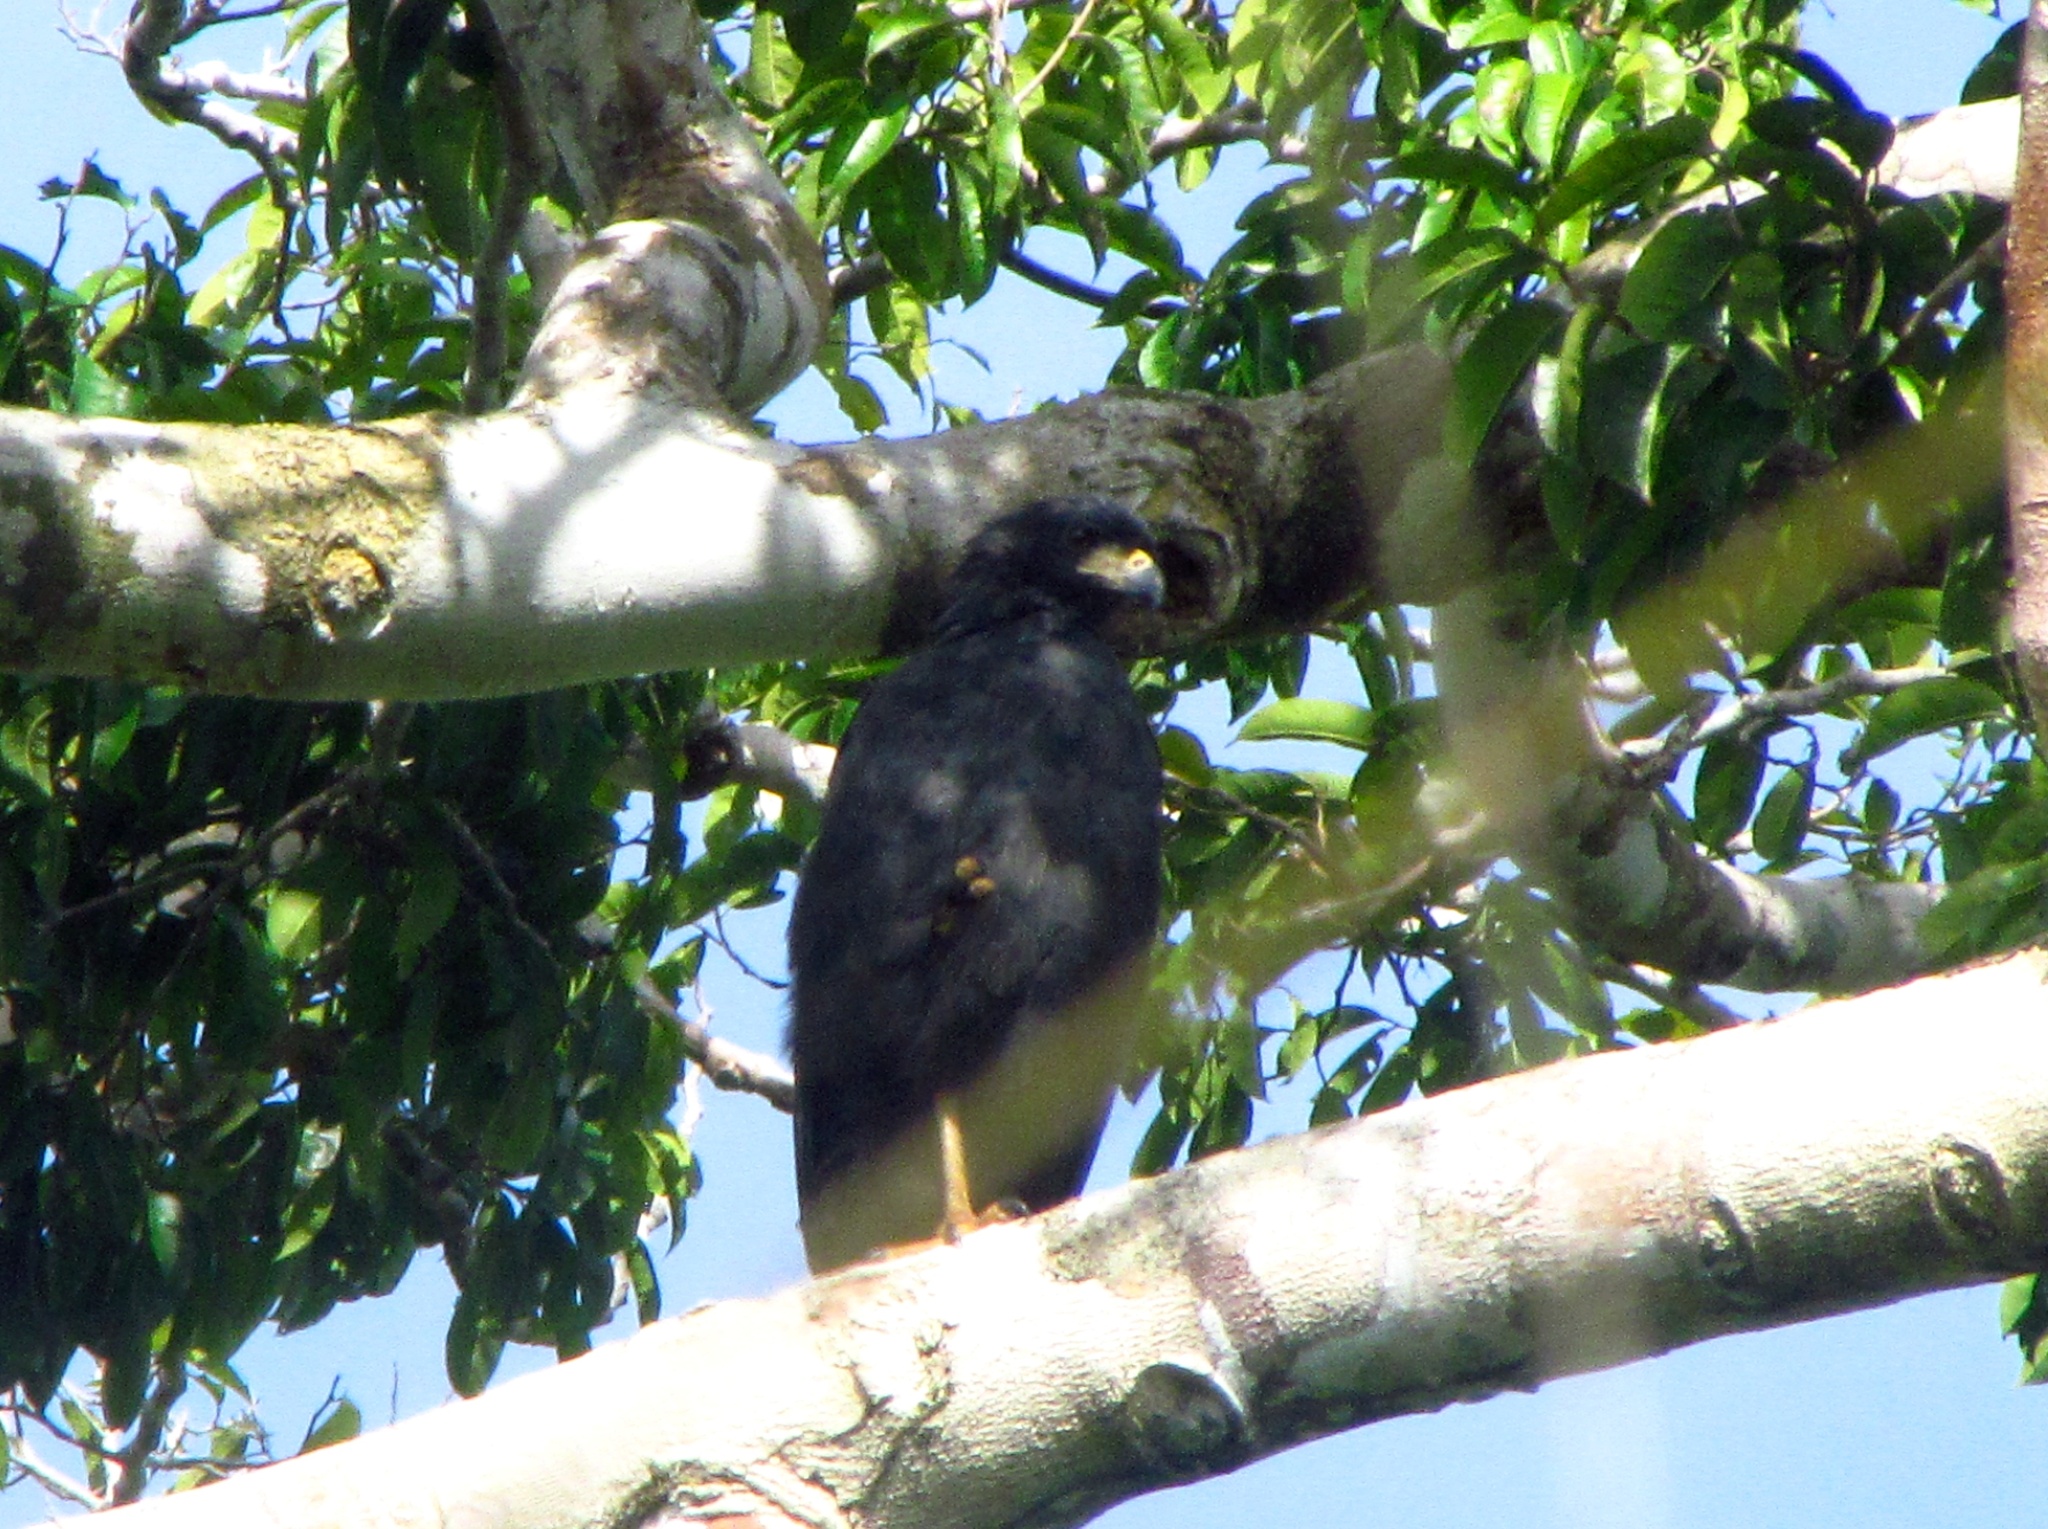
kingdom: Animalia
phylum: Chordata
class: Aves
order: Accipitriformes
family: Accipitridae
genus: Buteogallus
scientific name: Buteogallus urubitinga
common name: Great black hawk
